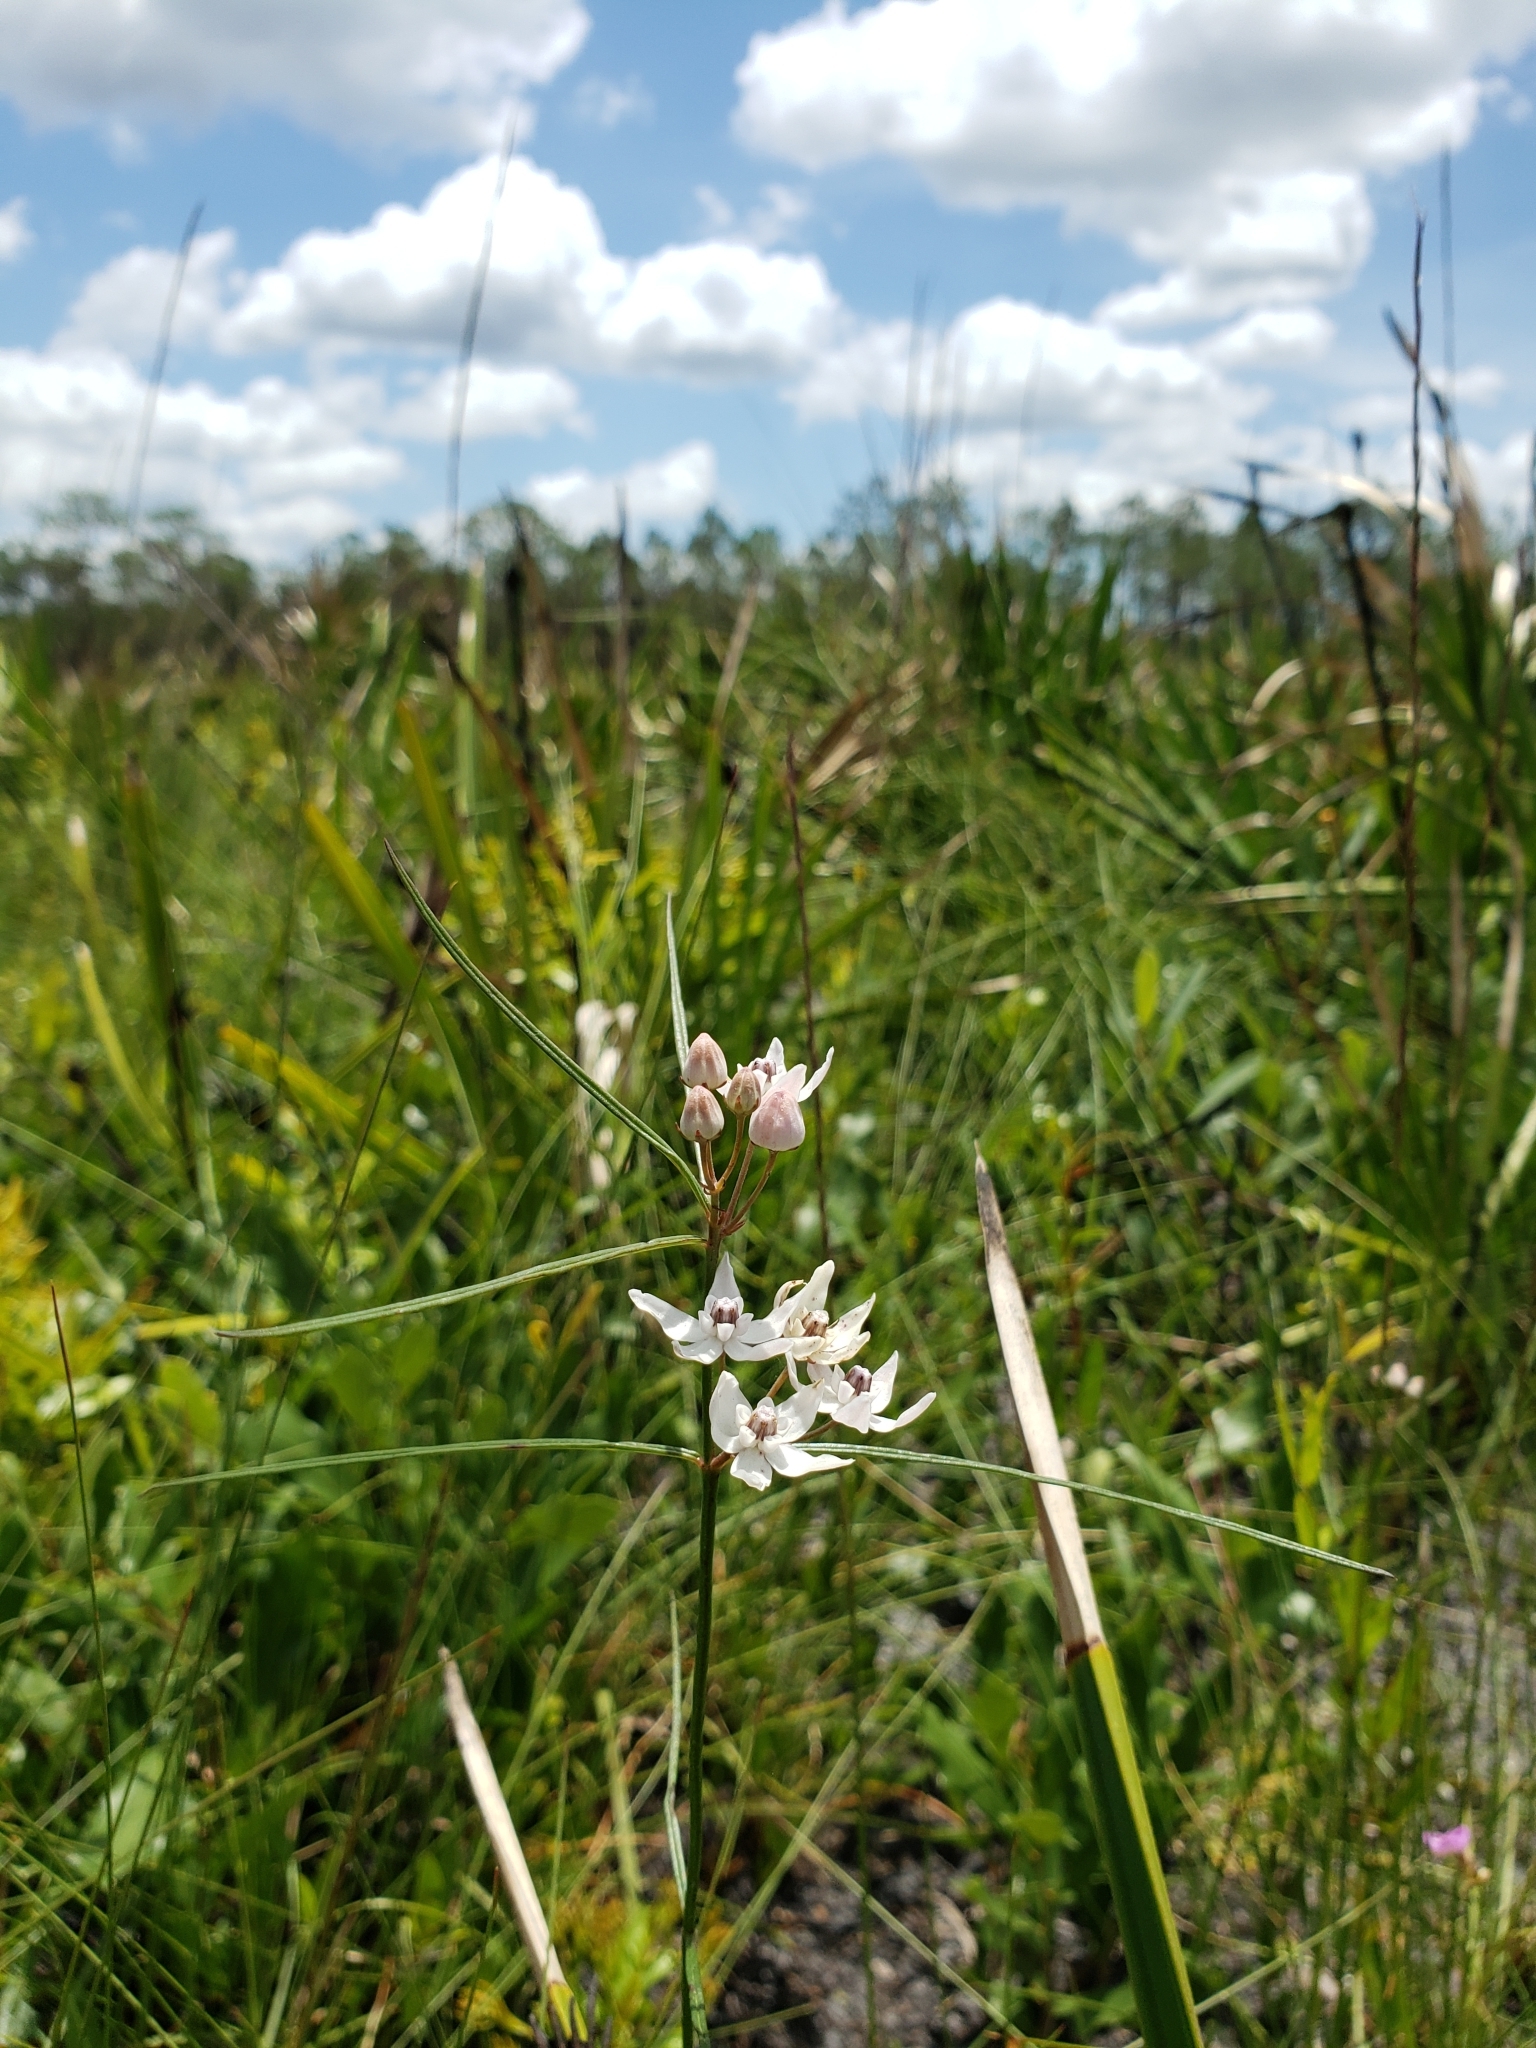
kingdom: Plantae
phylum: Tracheophyta
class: Magnoliopsida
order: Gentianales
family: Apocynaceae
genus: Asclepias
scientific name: Asclepias feayi
